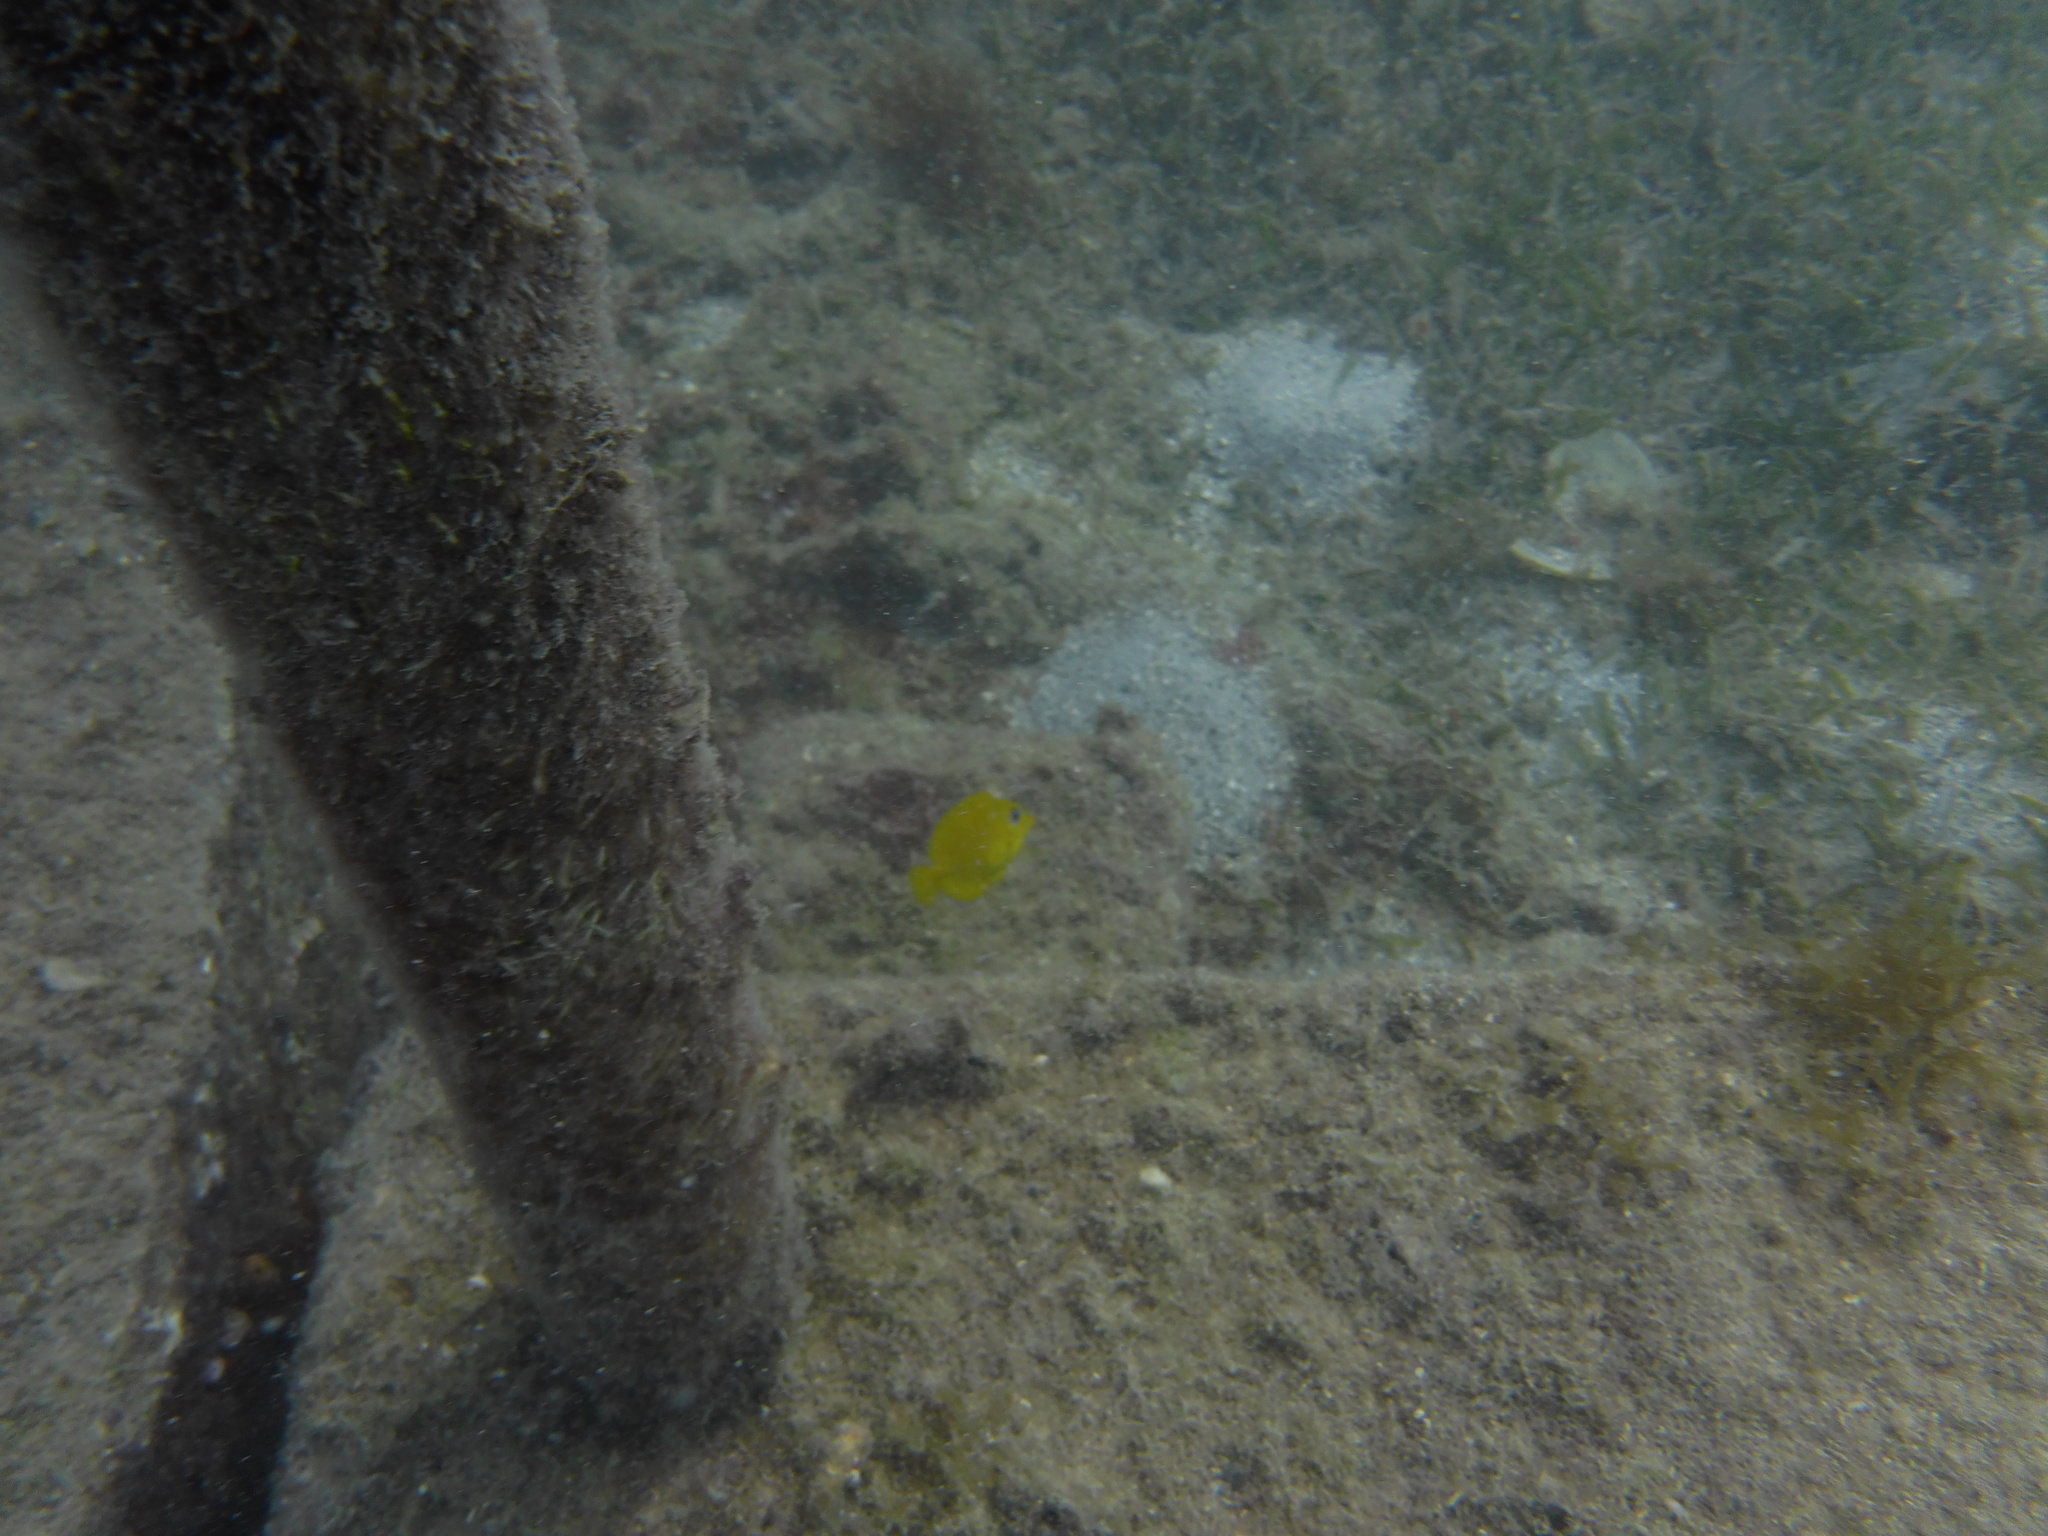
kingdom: Animalia
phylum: Chordata
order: Perciformes
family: Acanthuridae
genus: Acanthurus
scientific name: Acanthurus coeruleus
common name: Blue tang
